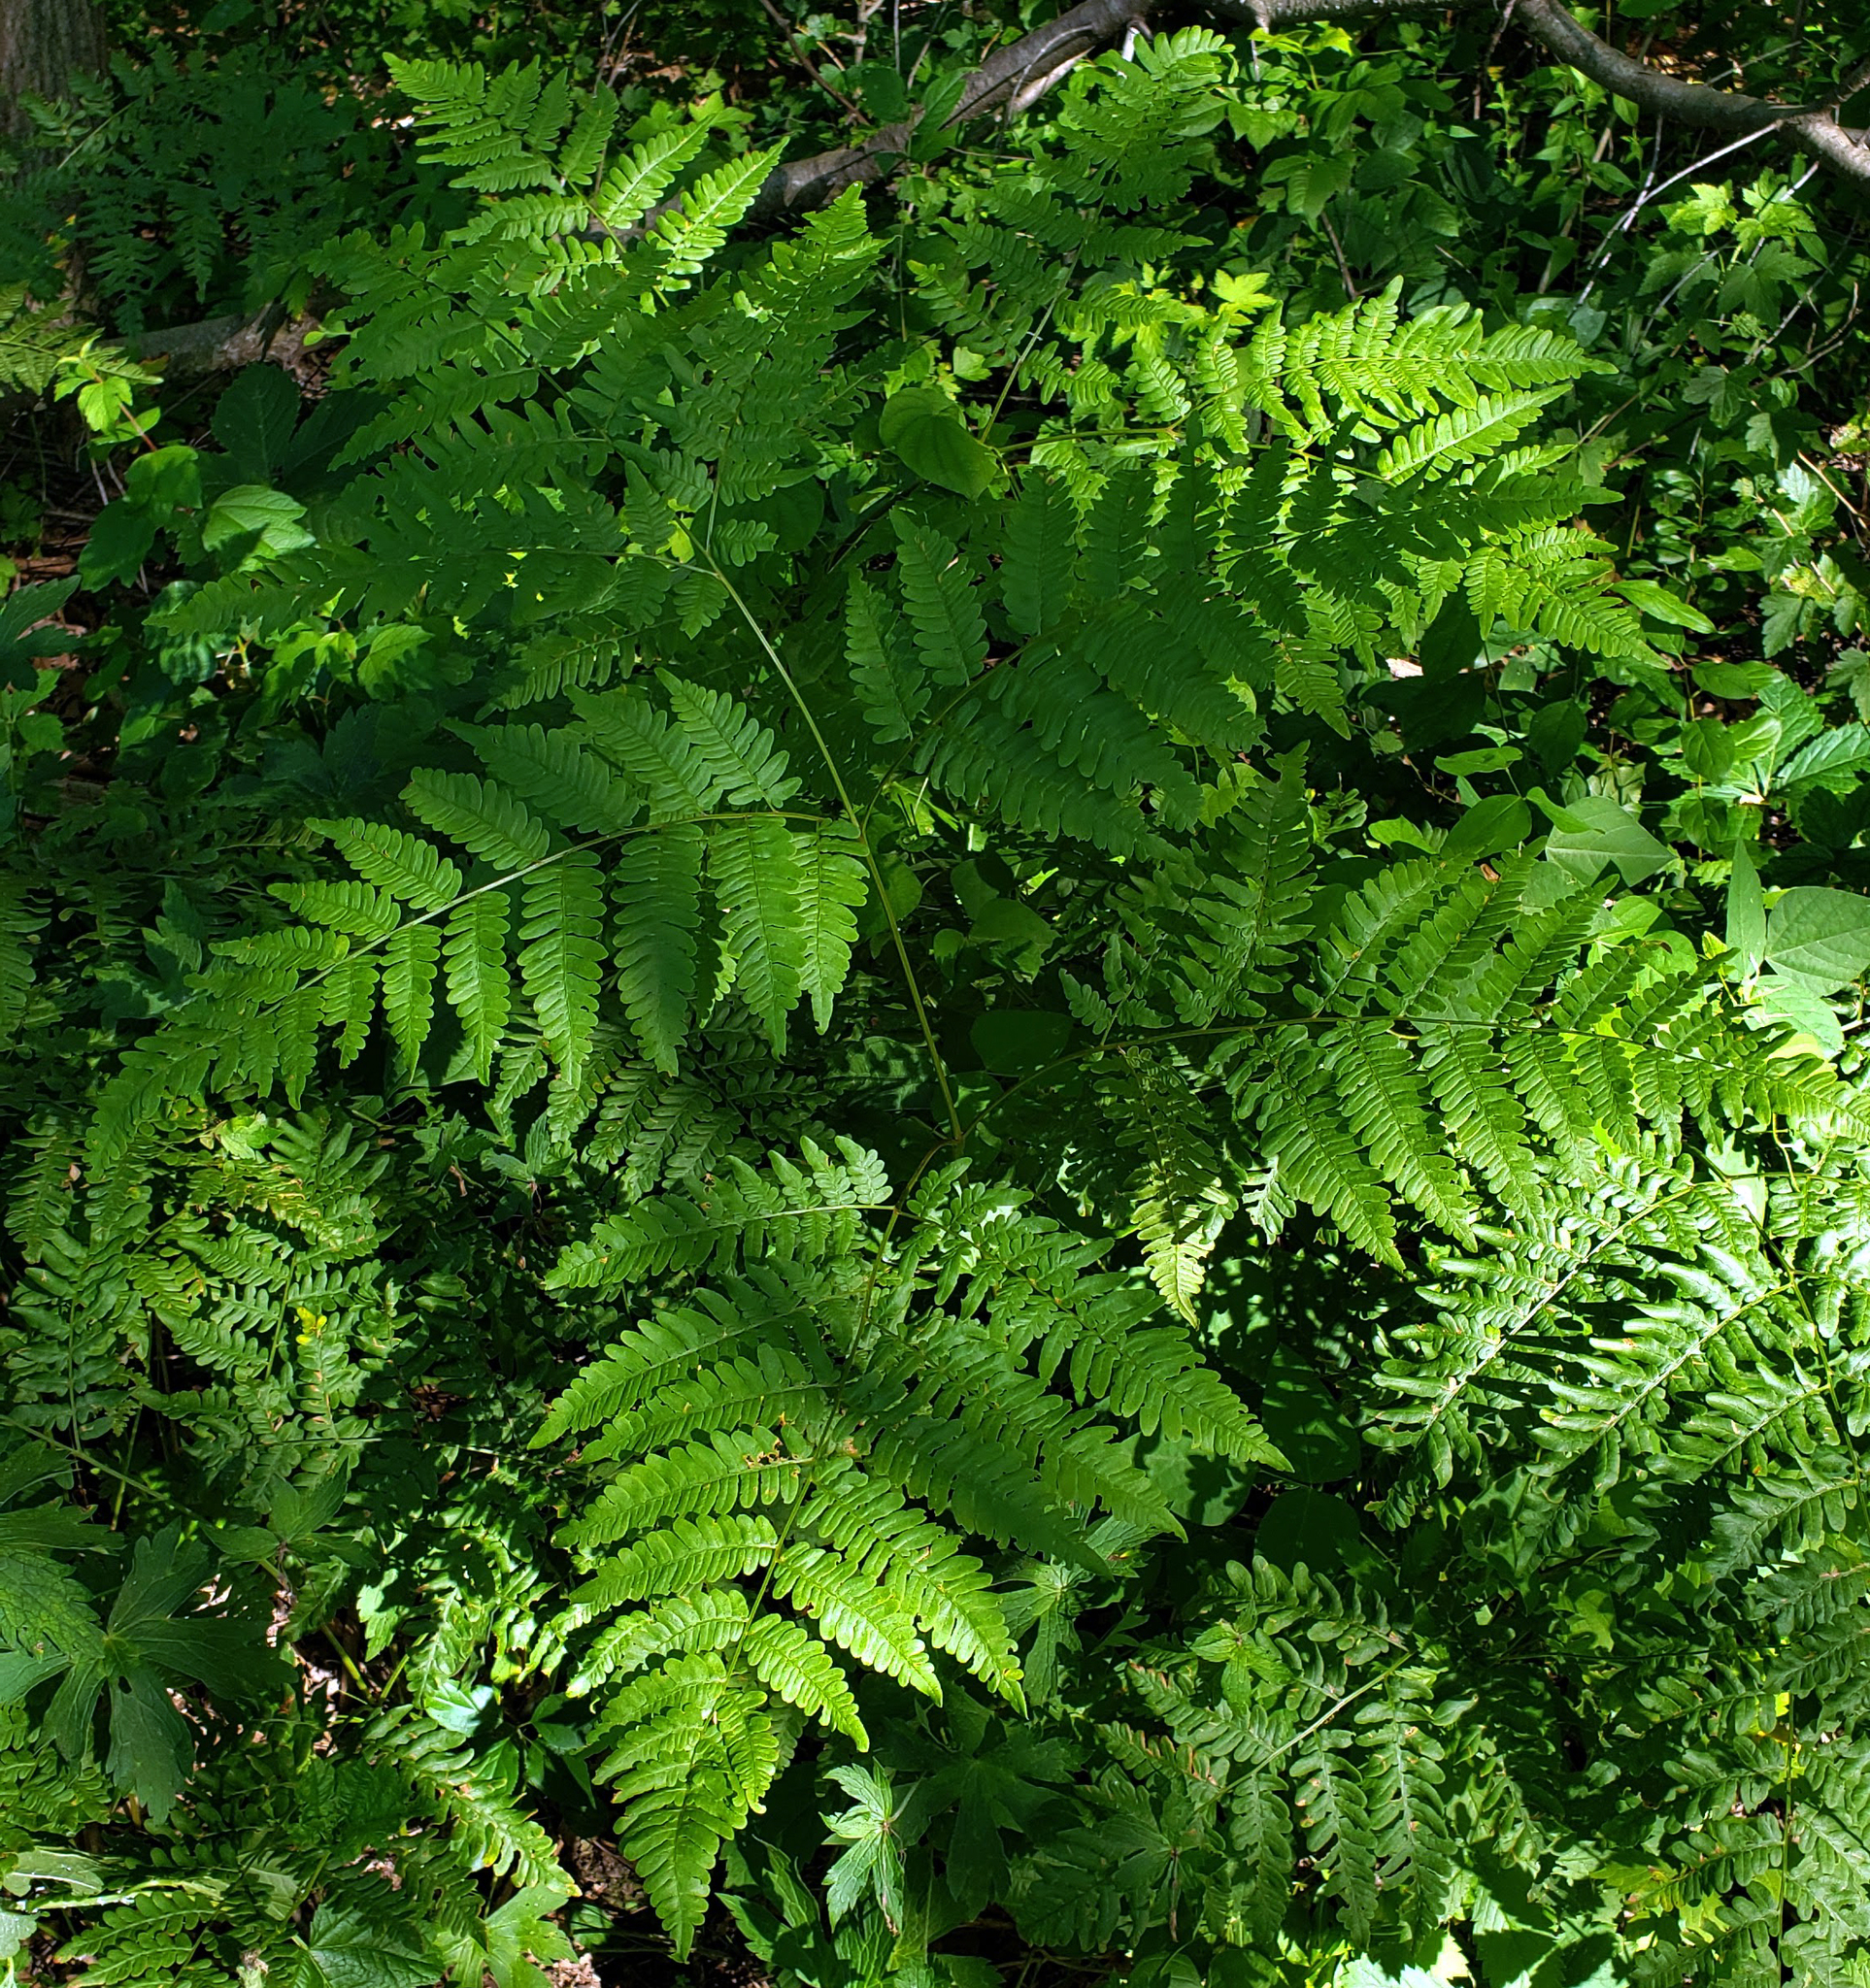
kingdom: Plantae
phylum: Tracheophyta
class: Polypodiopsida
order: Polypodiales
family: Dennstaedtiaceae
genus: Pteridium
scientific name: Pteridium aquilinum
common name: Bracken
